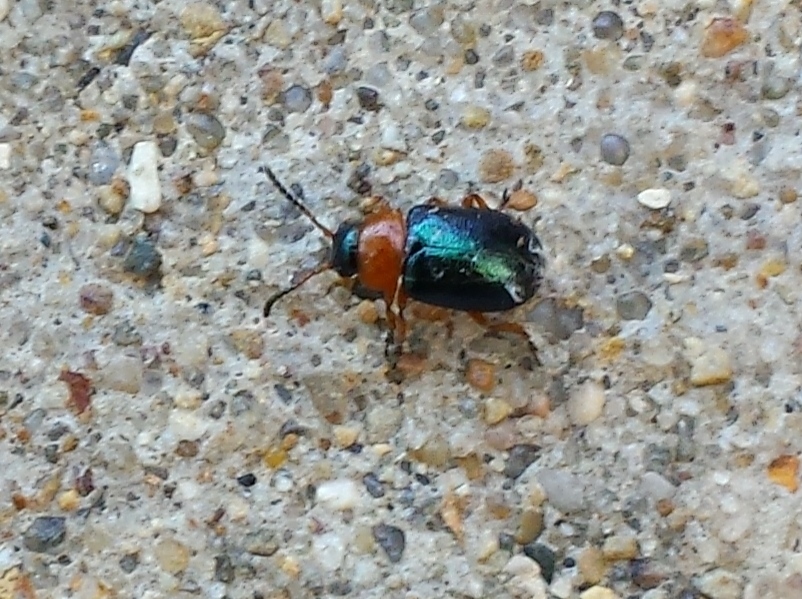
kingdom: Animalia
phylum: Arthropoda
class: Insecta
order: Coleoptera
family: Chrysomelidae
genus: Gastrophysa
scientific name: Gastrophysa polygoni
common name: Knotweed leaf beetle
